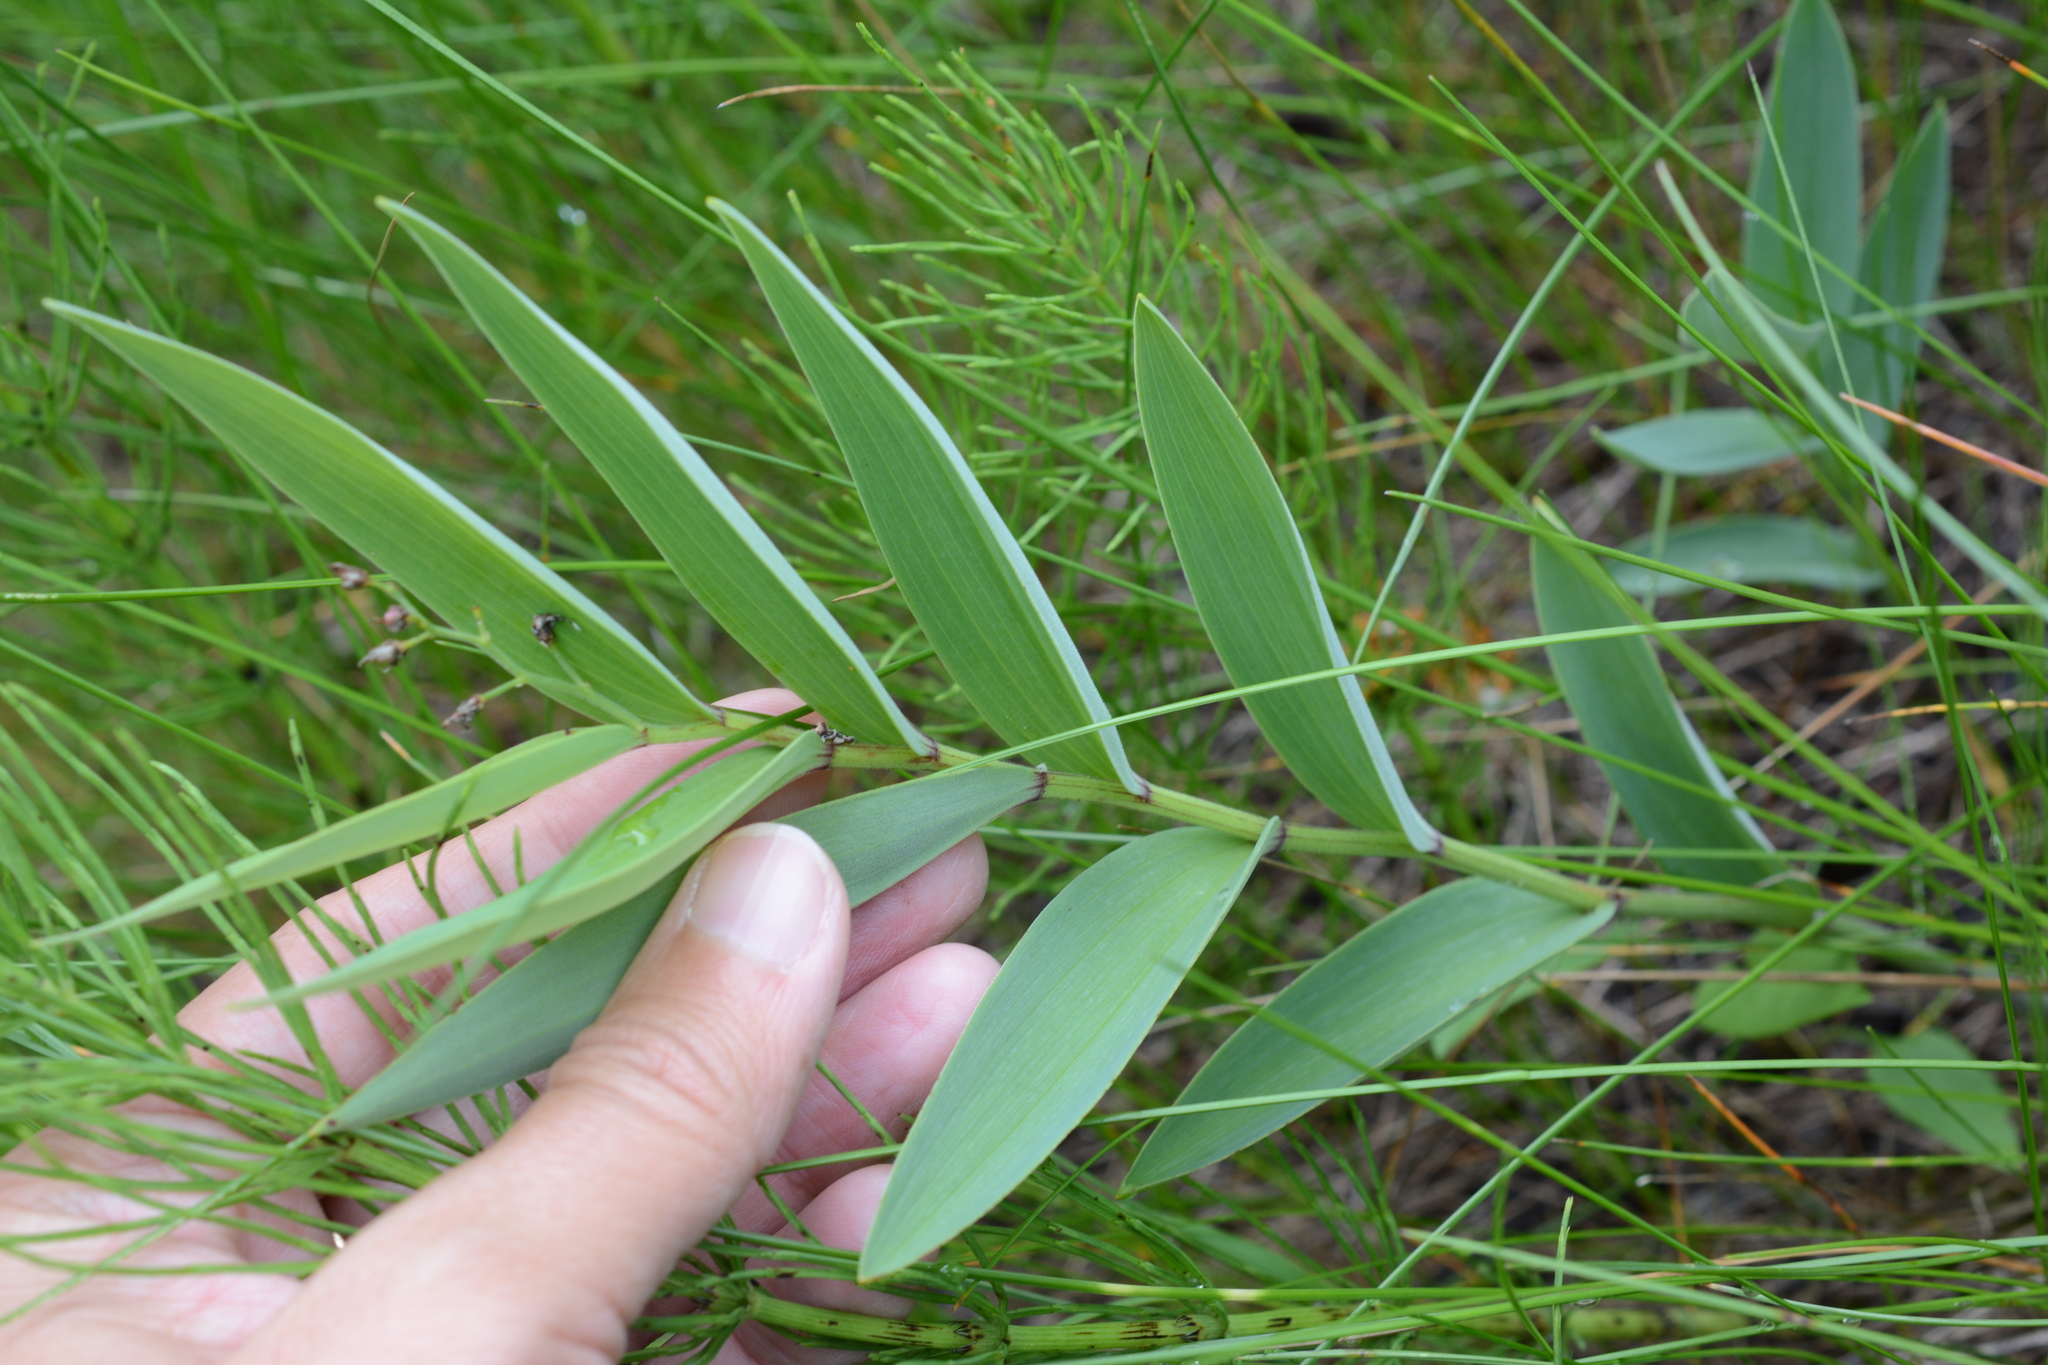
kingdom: Plantae
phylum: Tracheophyta
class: Liliopsida
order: Asparagales
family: Asparagaceae
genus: Maianthemum
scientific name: Maianthemum stellatum
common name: Little false solomon's seal
